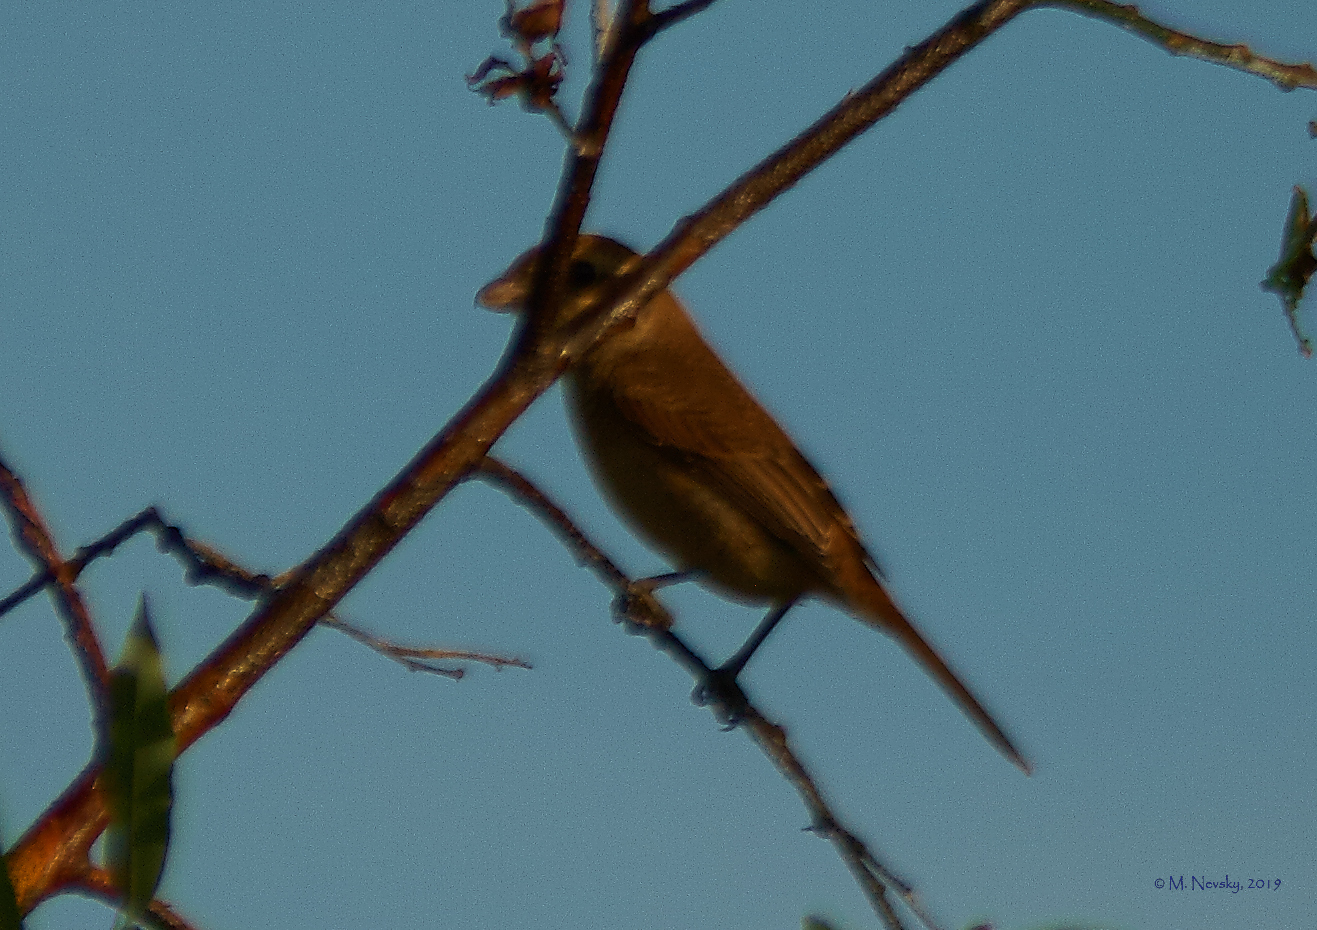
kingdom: Animalia
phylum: Chordata
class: Aves
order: Passeriformes
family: Laniidae
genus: Lanius
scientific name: Lanius cristatus
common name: Brown shrike
